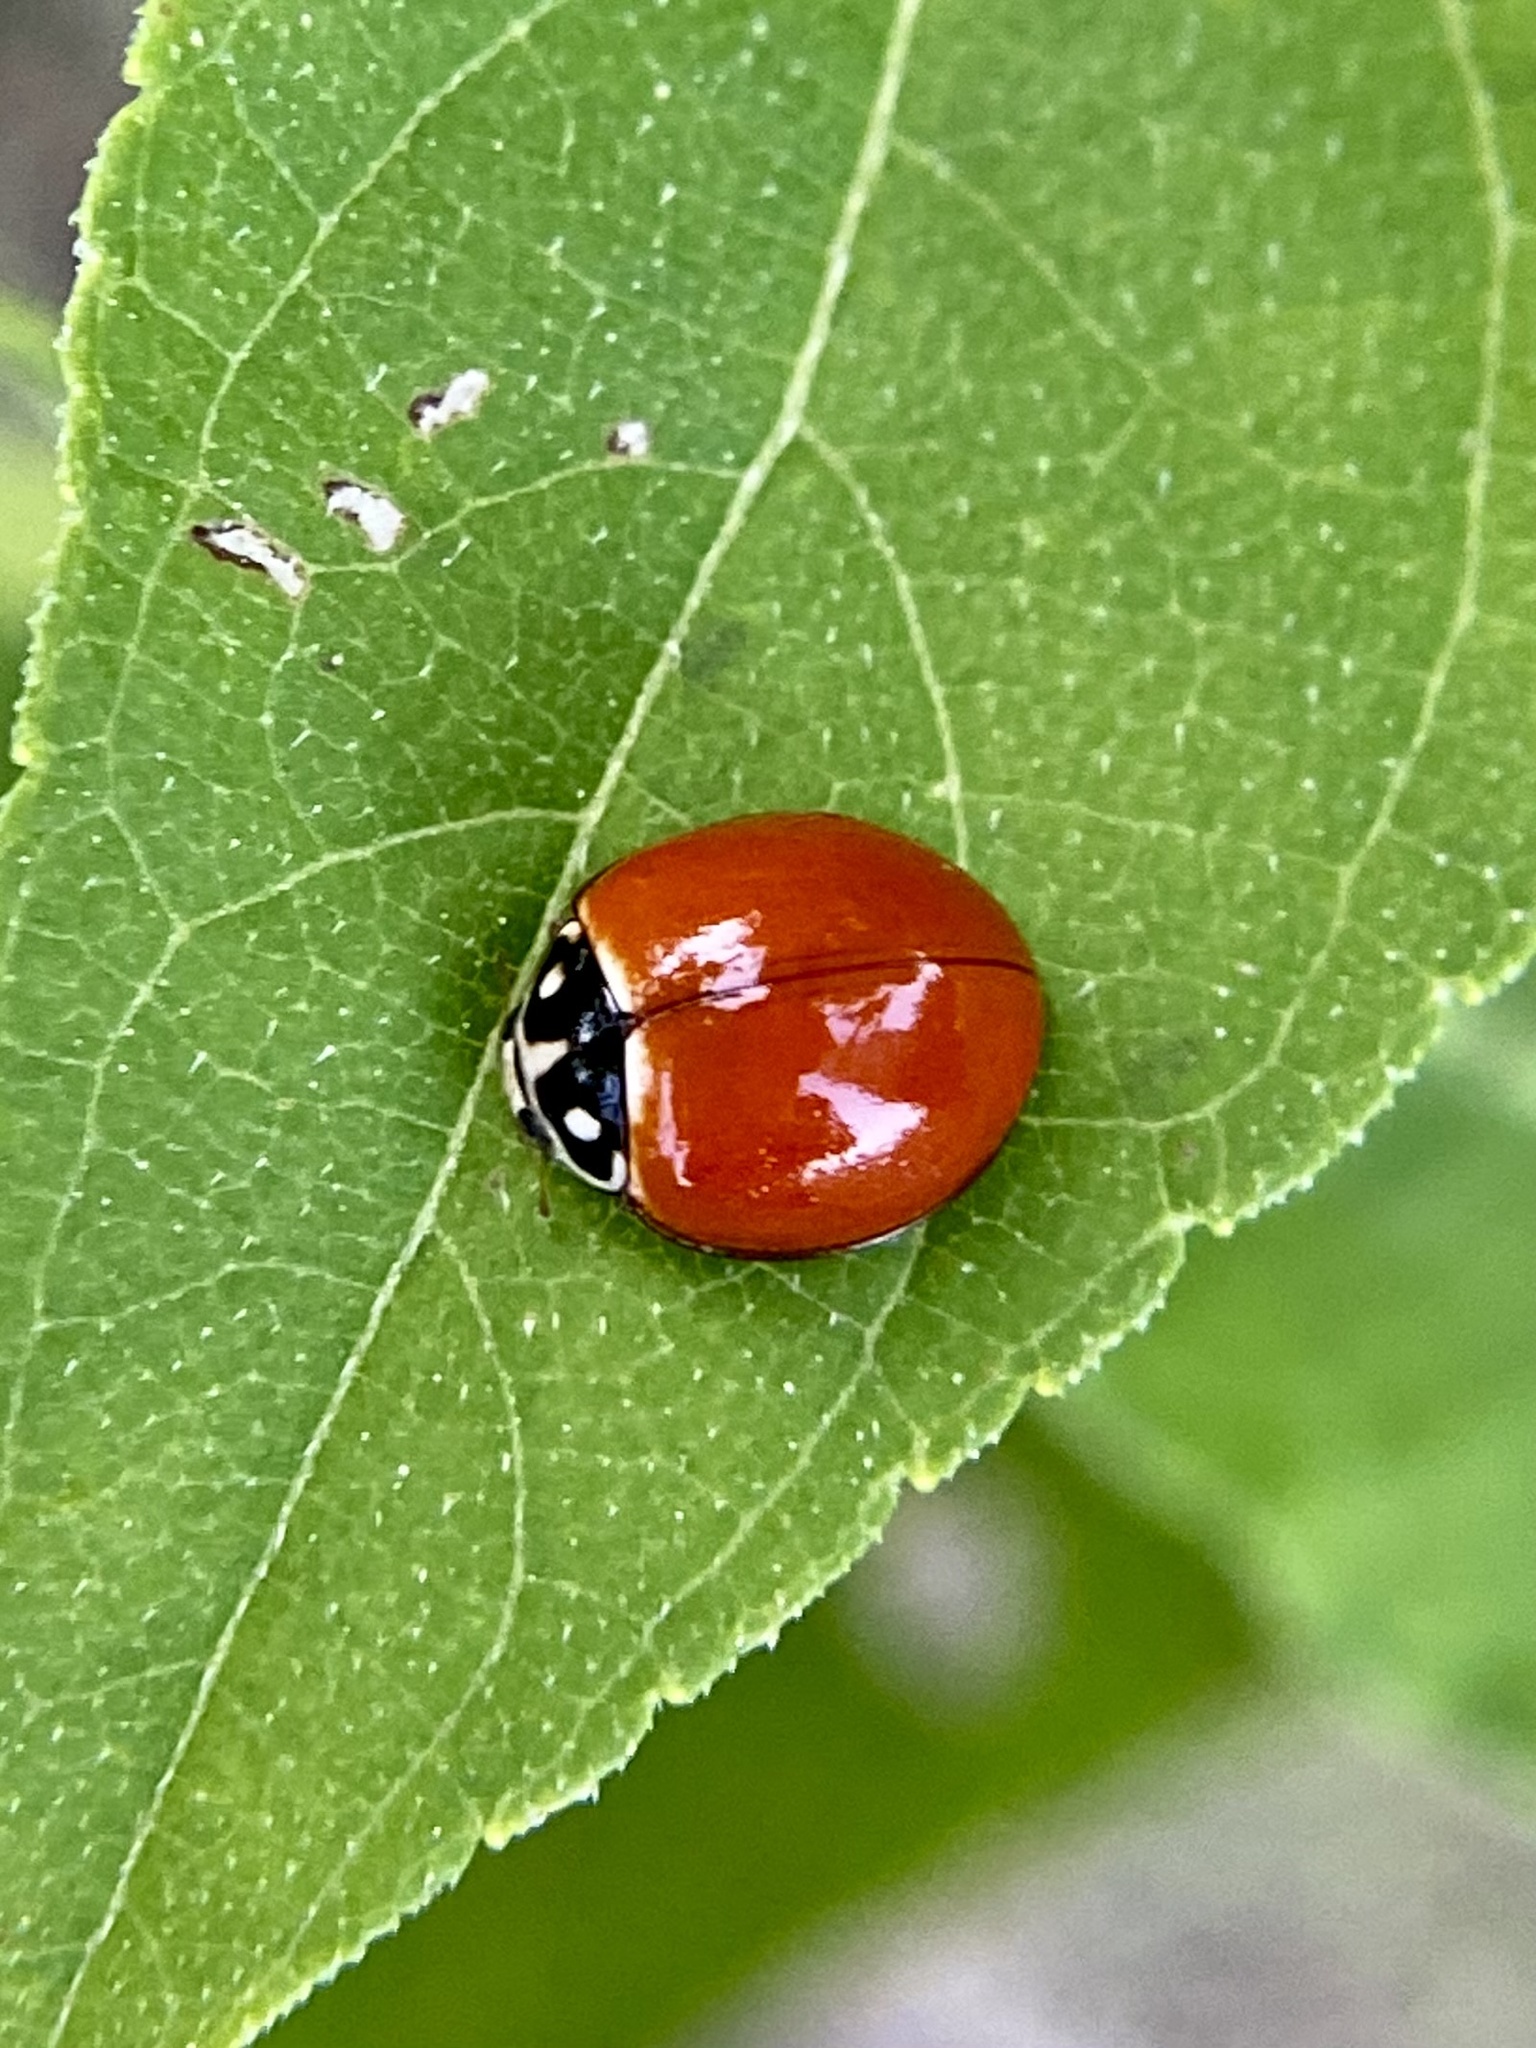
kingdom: Animalia
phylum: Arthropoda
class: Insecta
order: Coleoptera
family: Coccinellidae
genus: Cycloneda
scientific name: Cycloneda sanguinea
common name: Ladybird beetle
